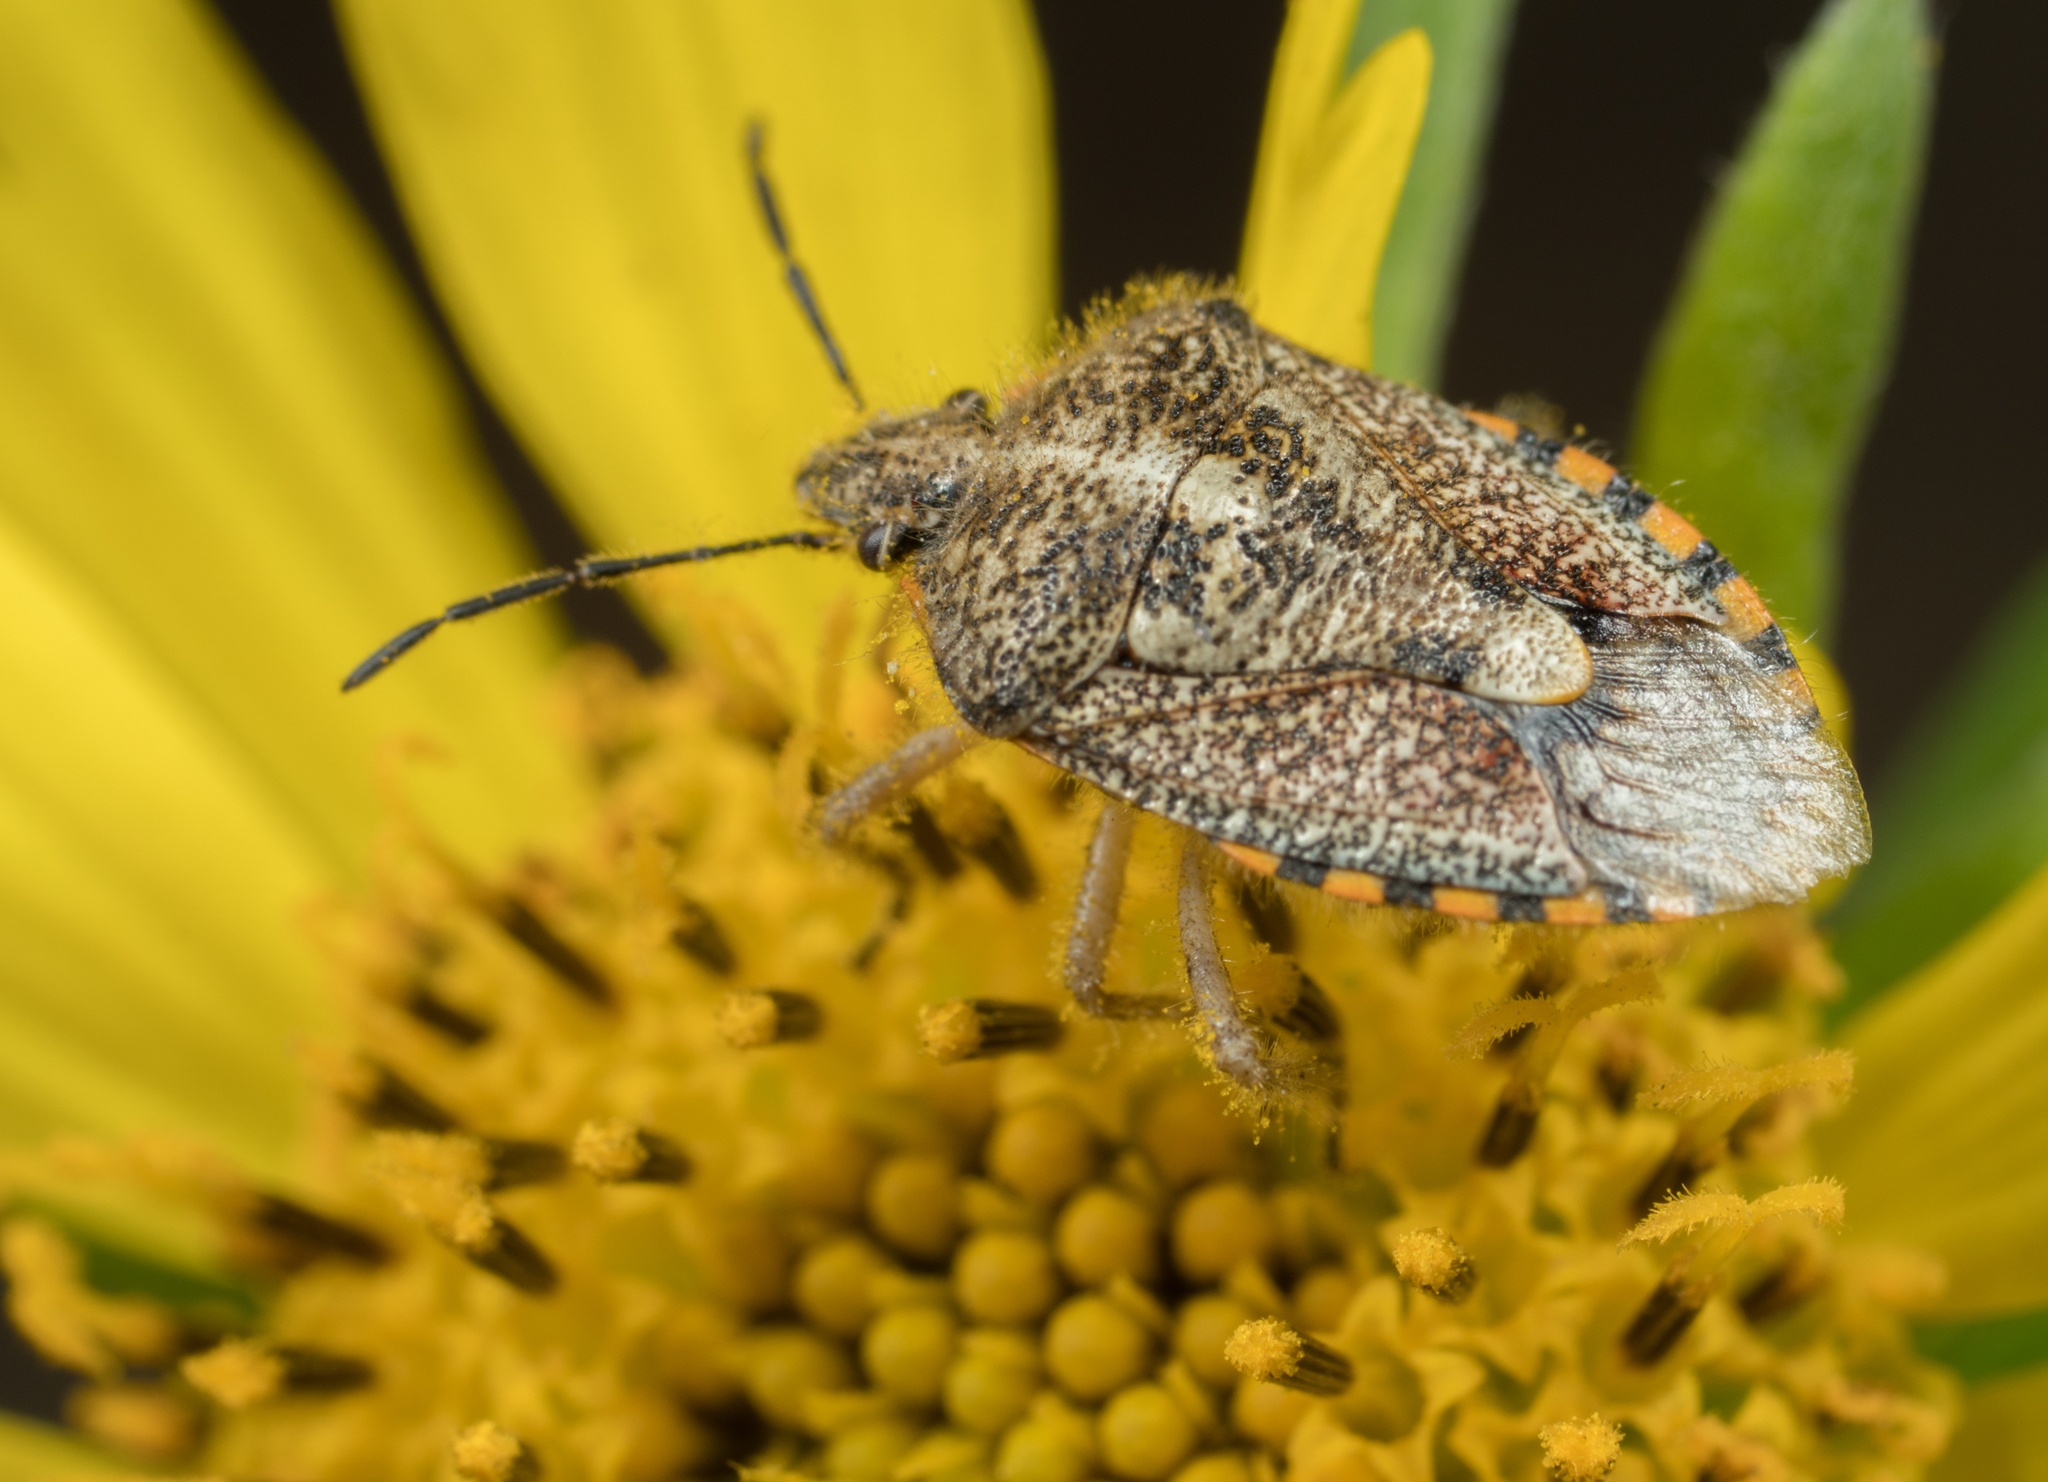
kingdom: Animalia
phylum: Arthropoda
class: Insecta
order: Hemiptera
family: Pentatomidae
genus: Agonoscelis
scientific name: Agonoscelis puberula
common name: African cluster bug
